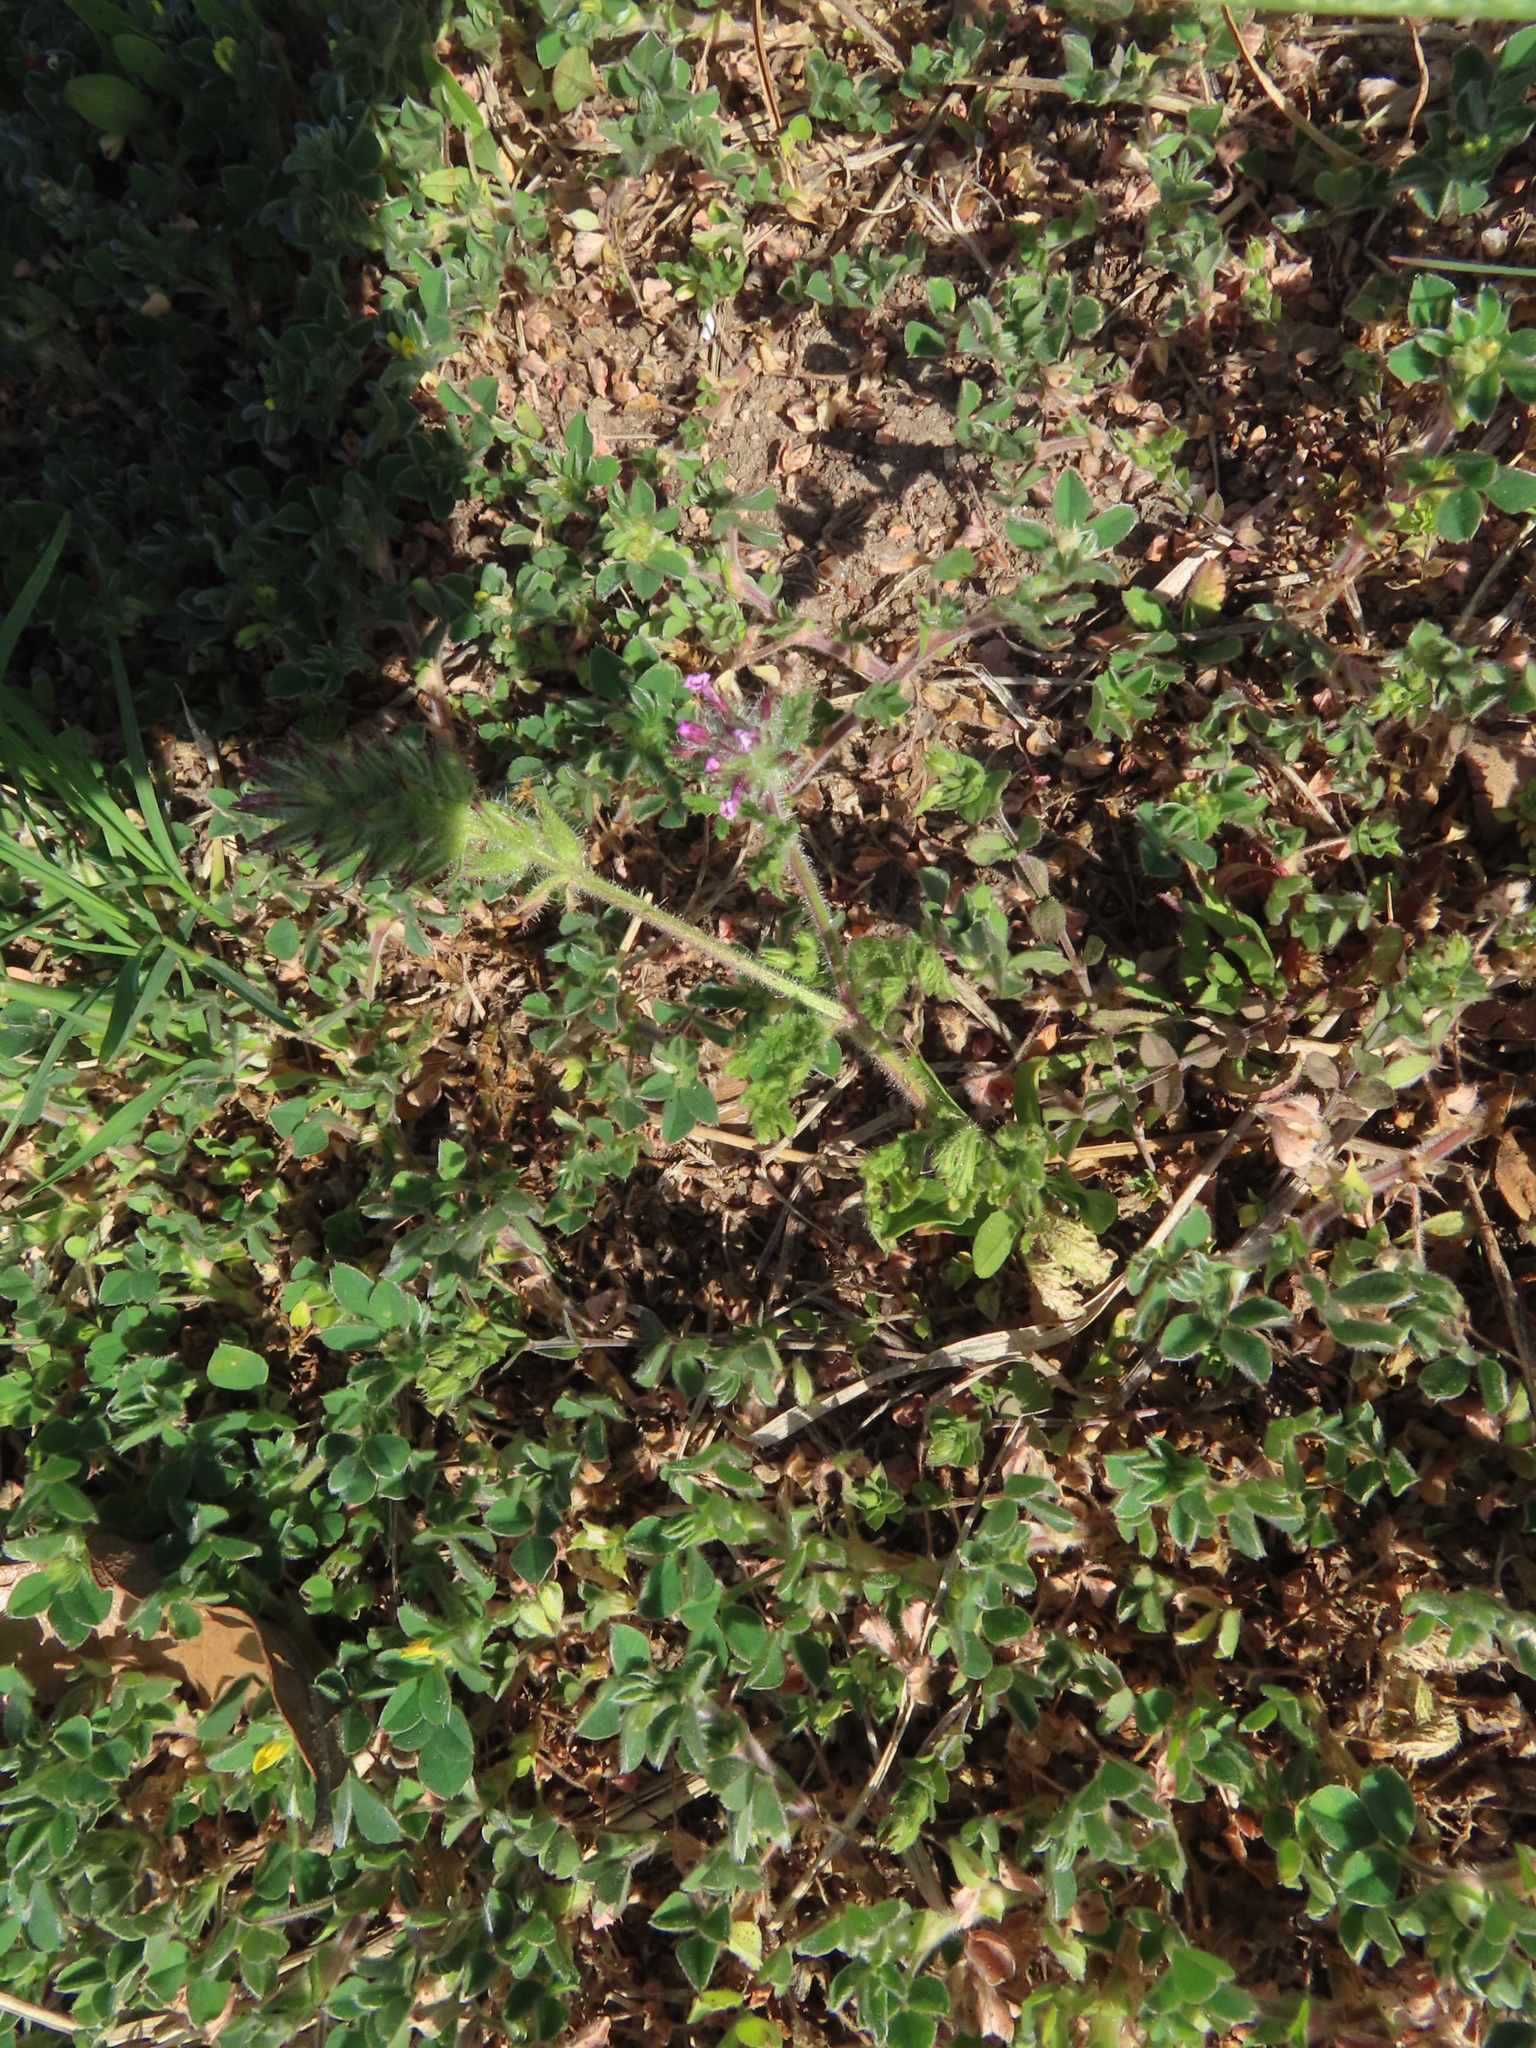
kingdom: Plantae
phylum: Tracheophyta
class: Magnoliopsida
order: Lamiales
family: Verbenaceae
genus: Verbena
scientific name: Verbena pumila
